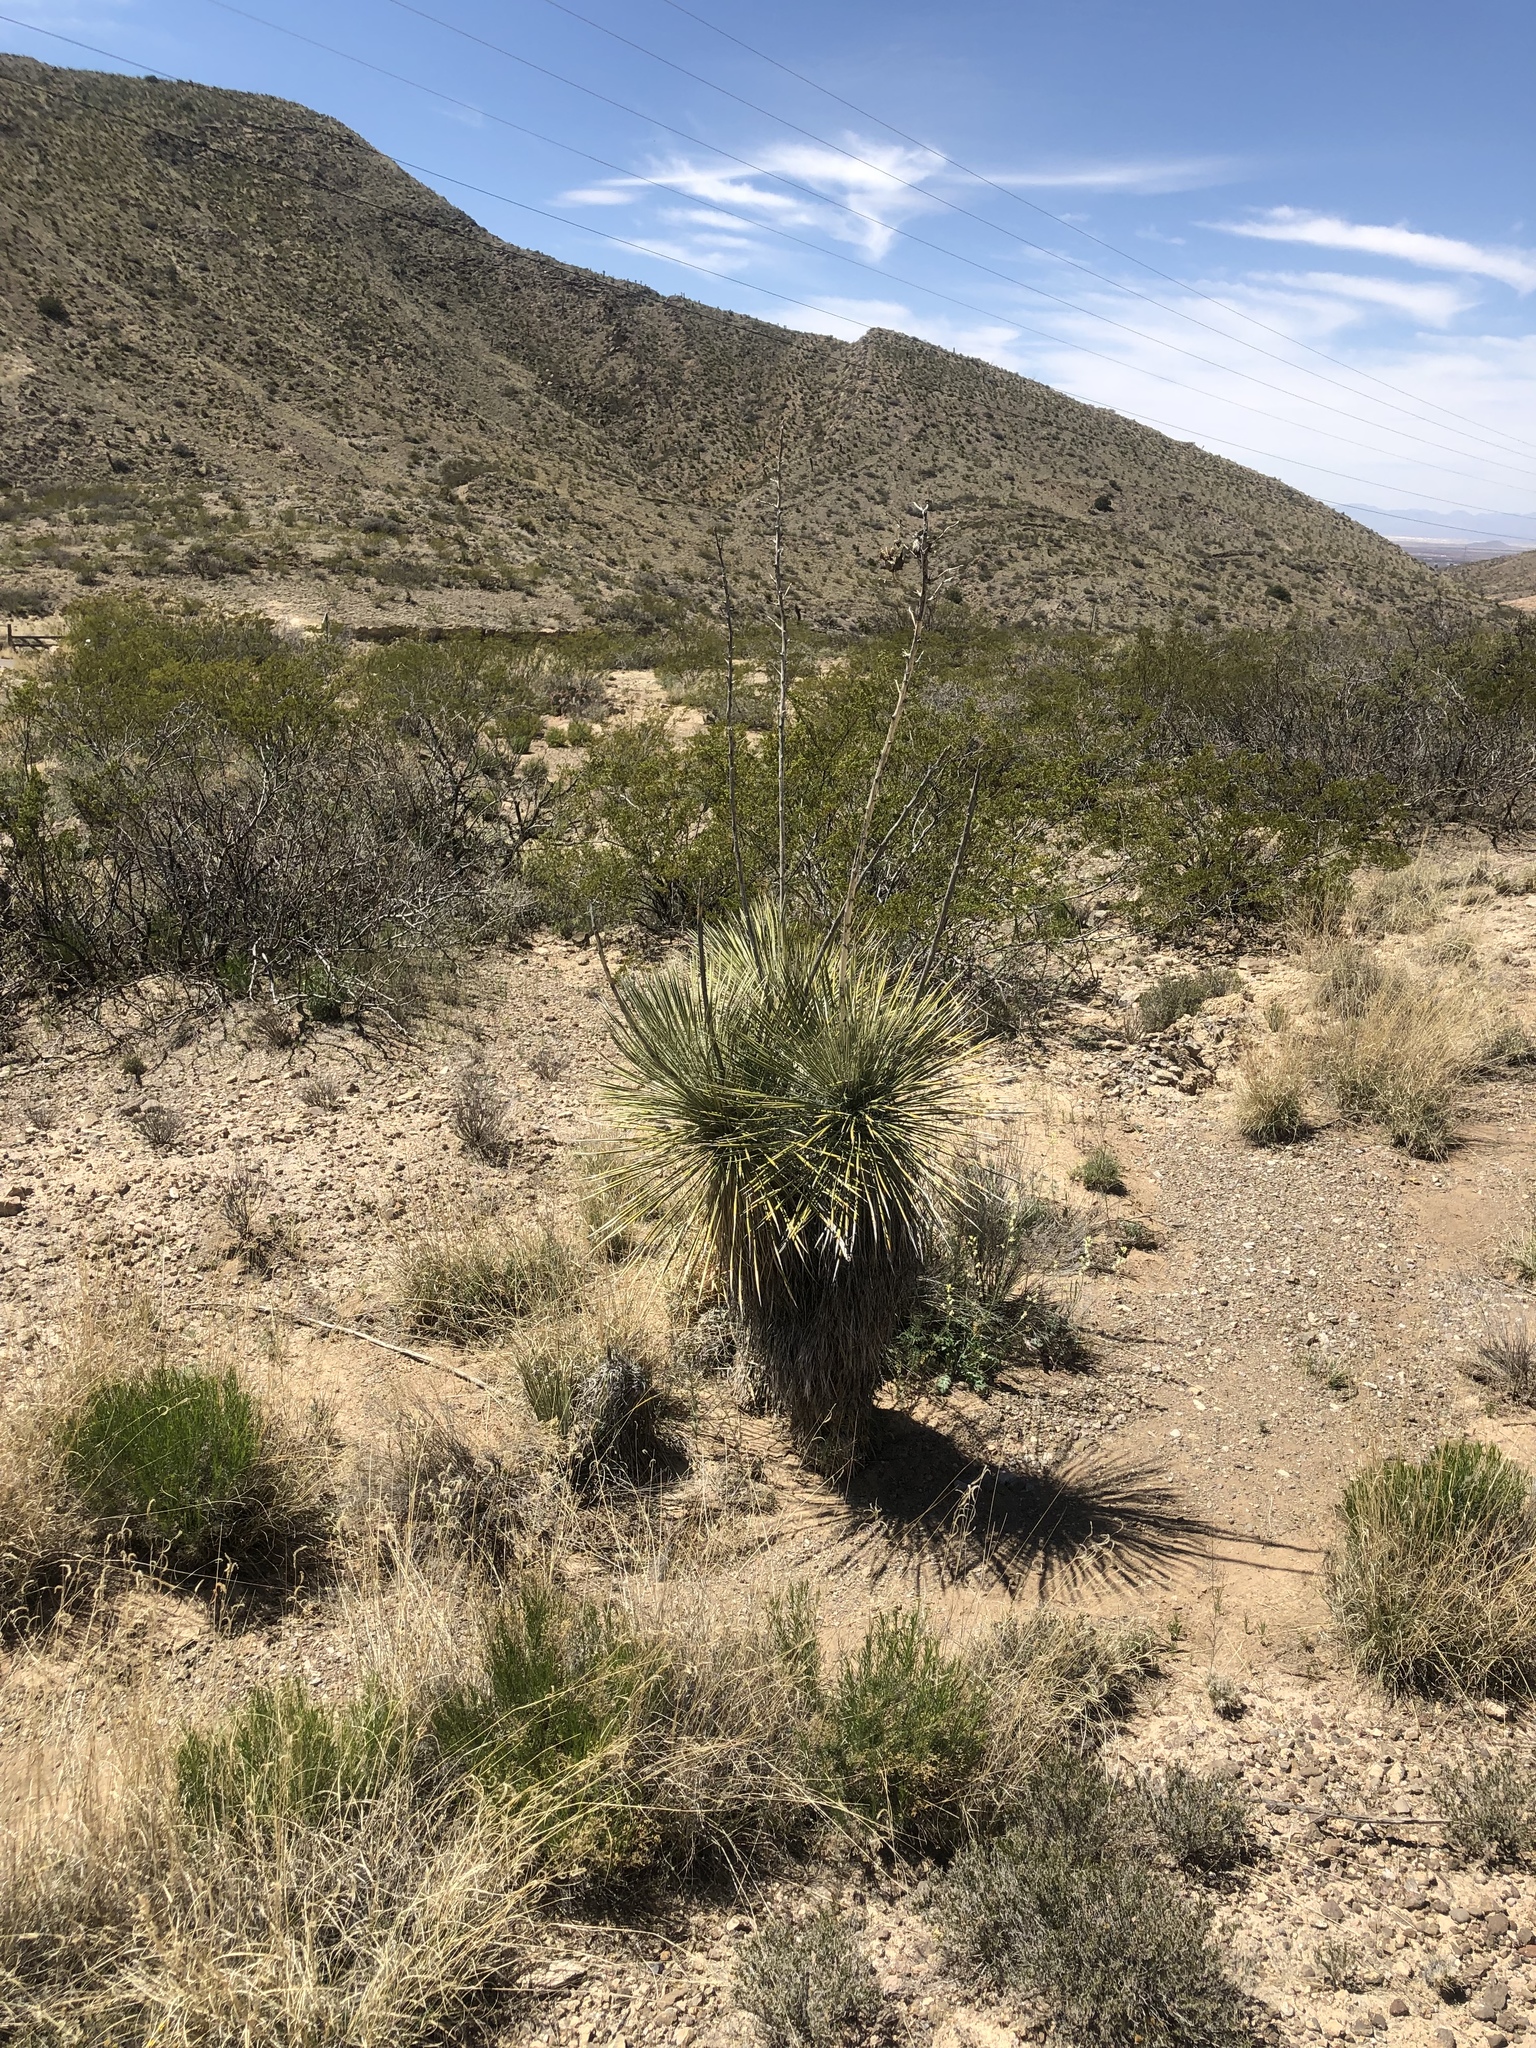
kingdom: Plantae
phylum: Tracheophyta
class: Liliopsida
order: Asparagales
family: Asparagaceae
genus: Yucca
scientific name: Yucca elata
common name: Palmella
